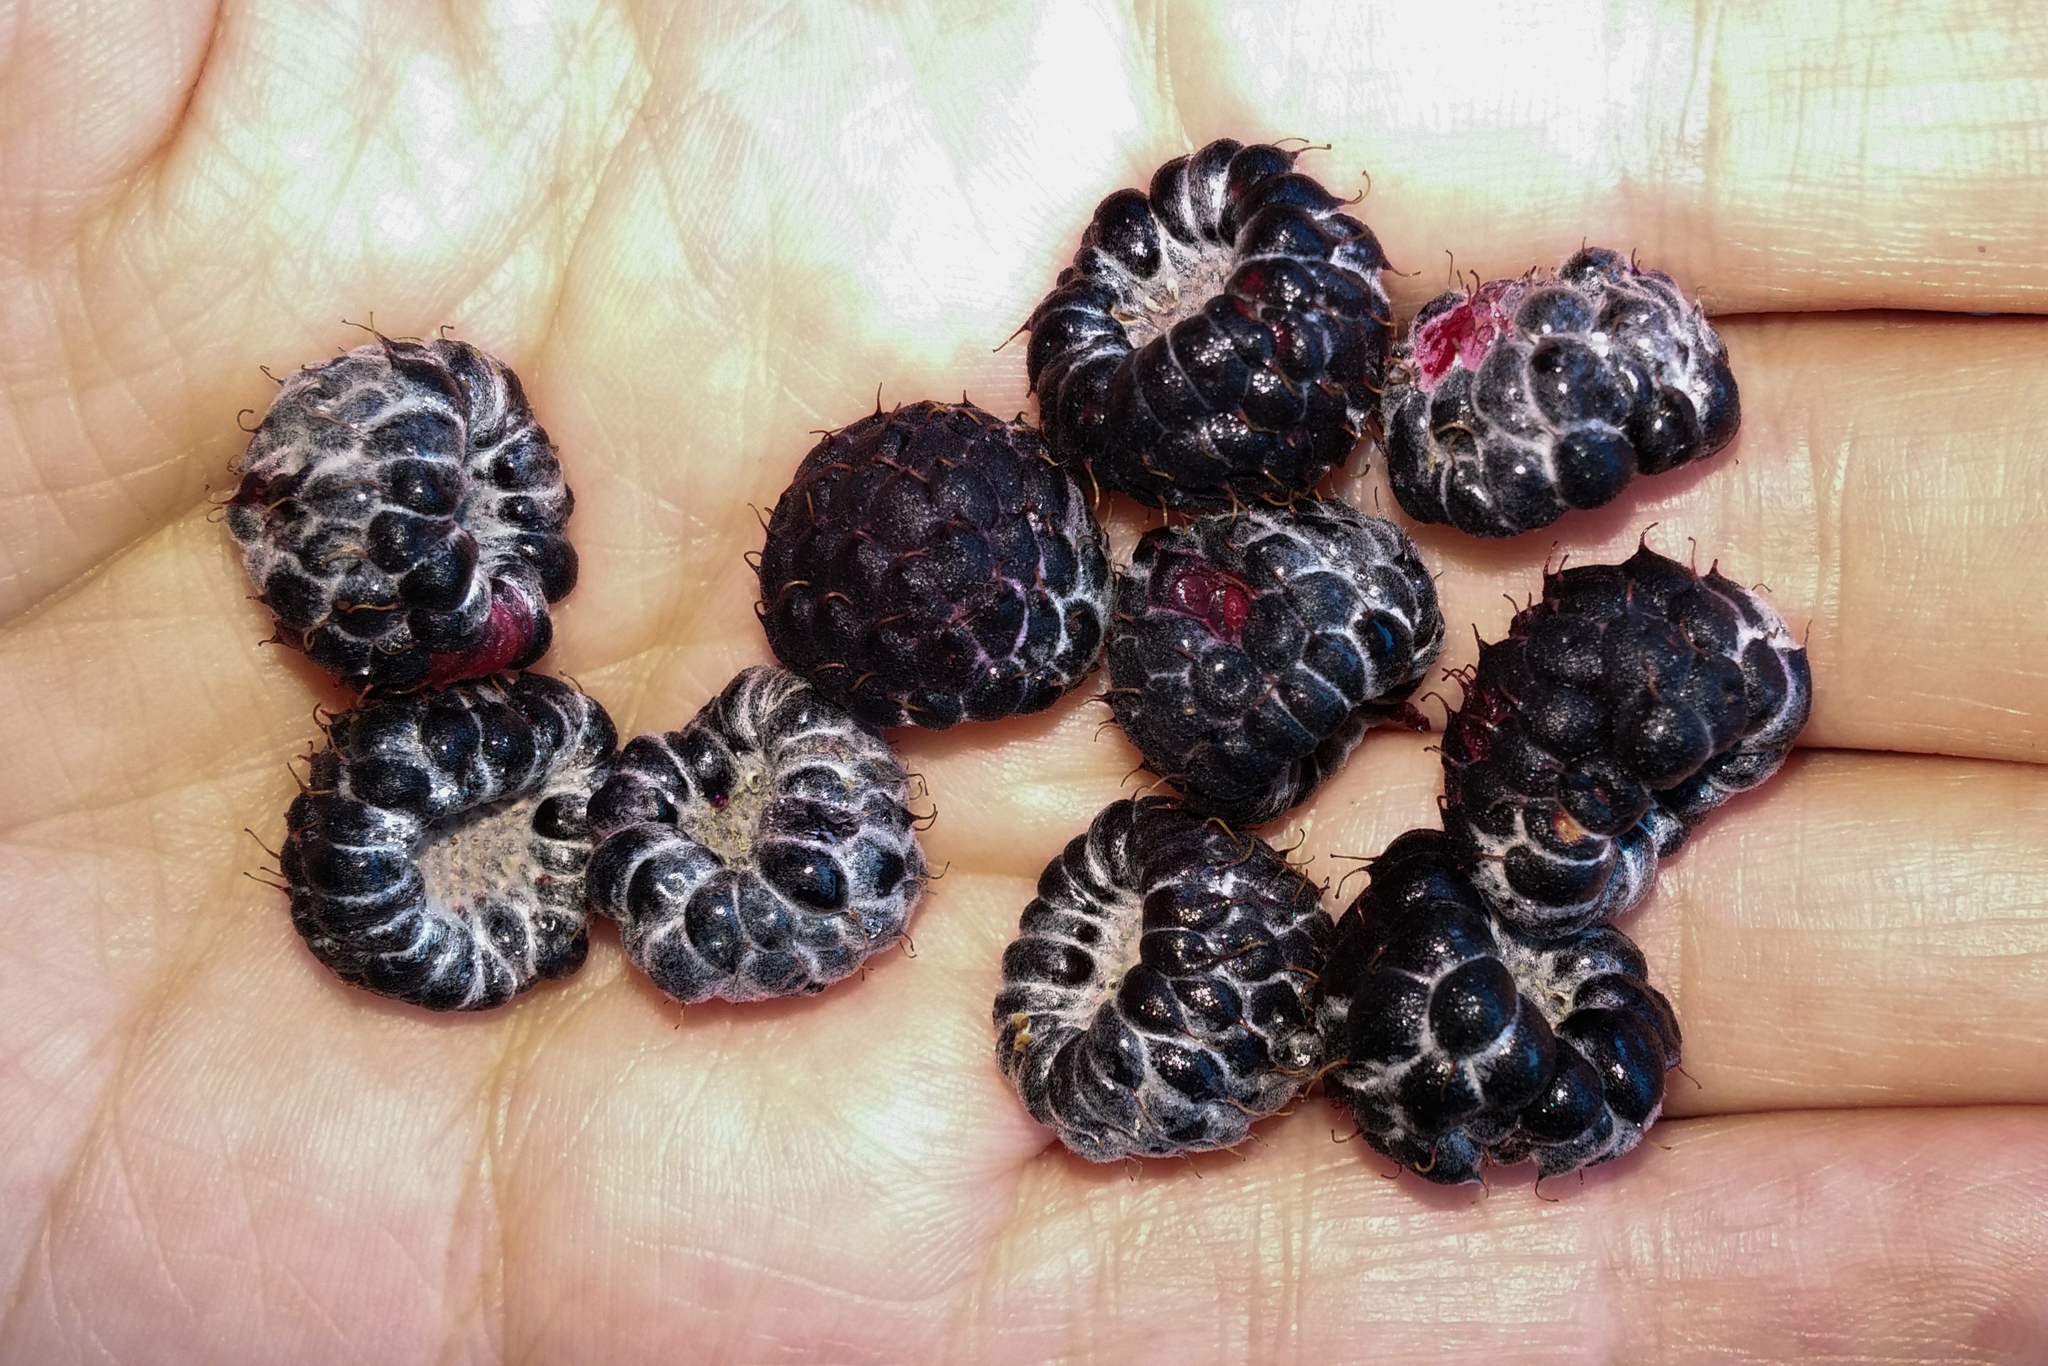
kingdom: Plantae
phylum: Tracheophyta
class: Magnoliopsida
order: Rosales
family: Rosaceae
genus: Rubus
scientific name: Rubus niveus
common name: Snowpeaks raspberry
